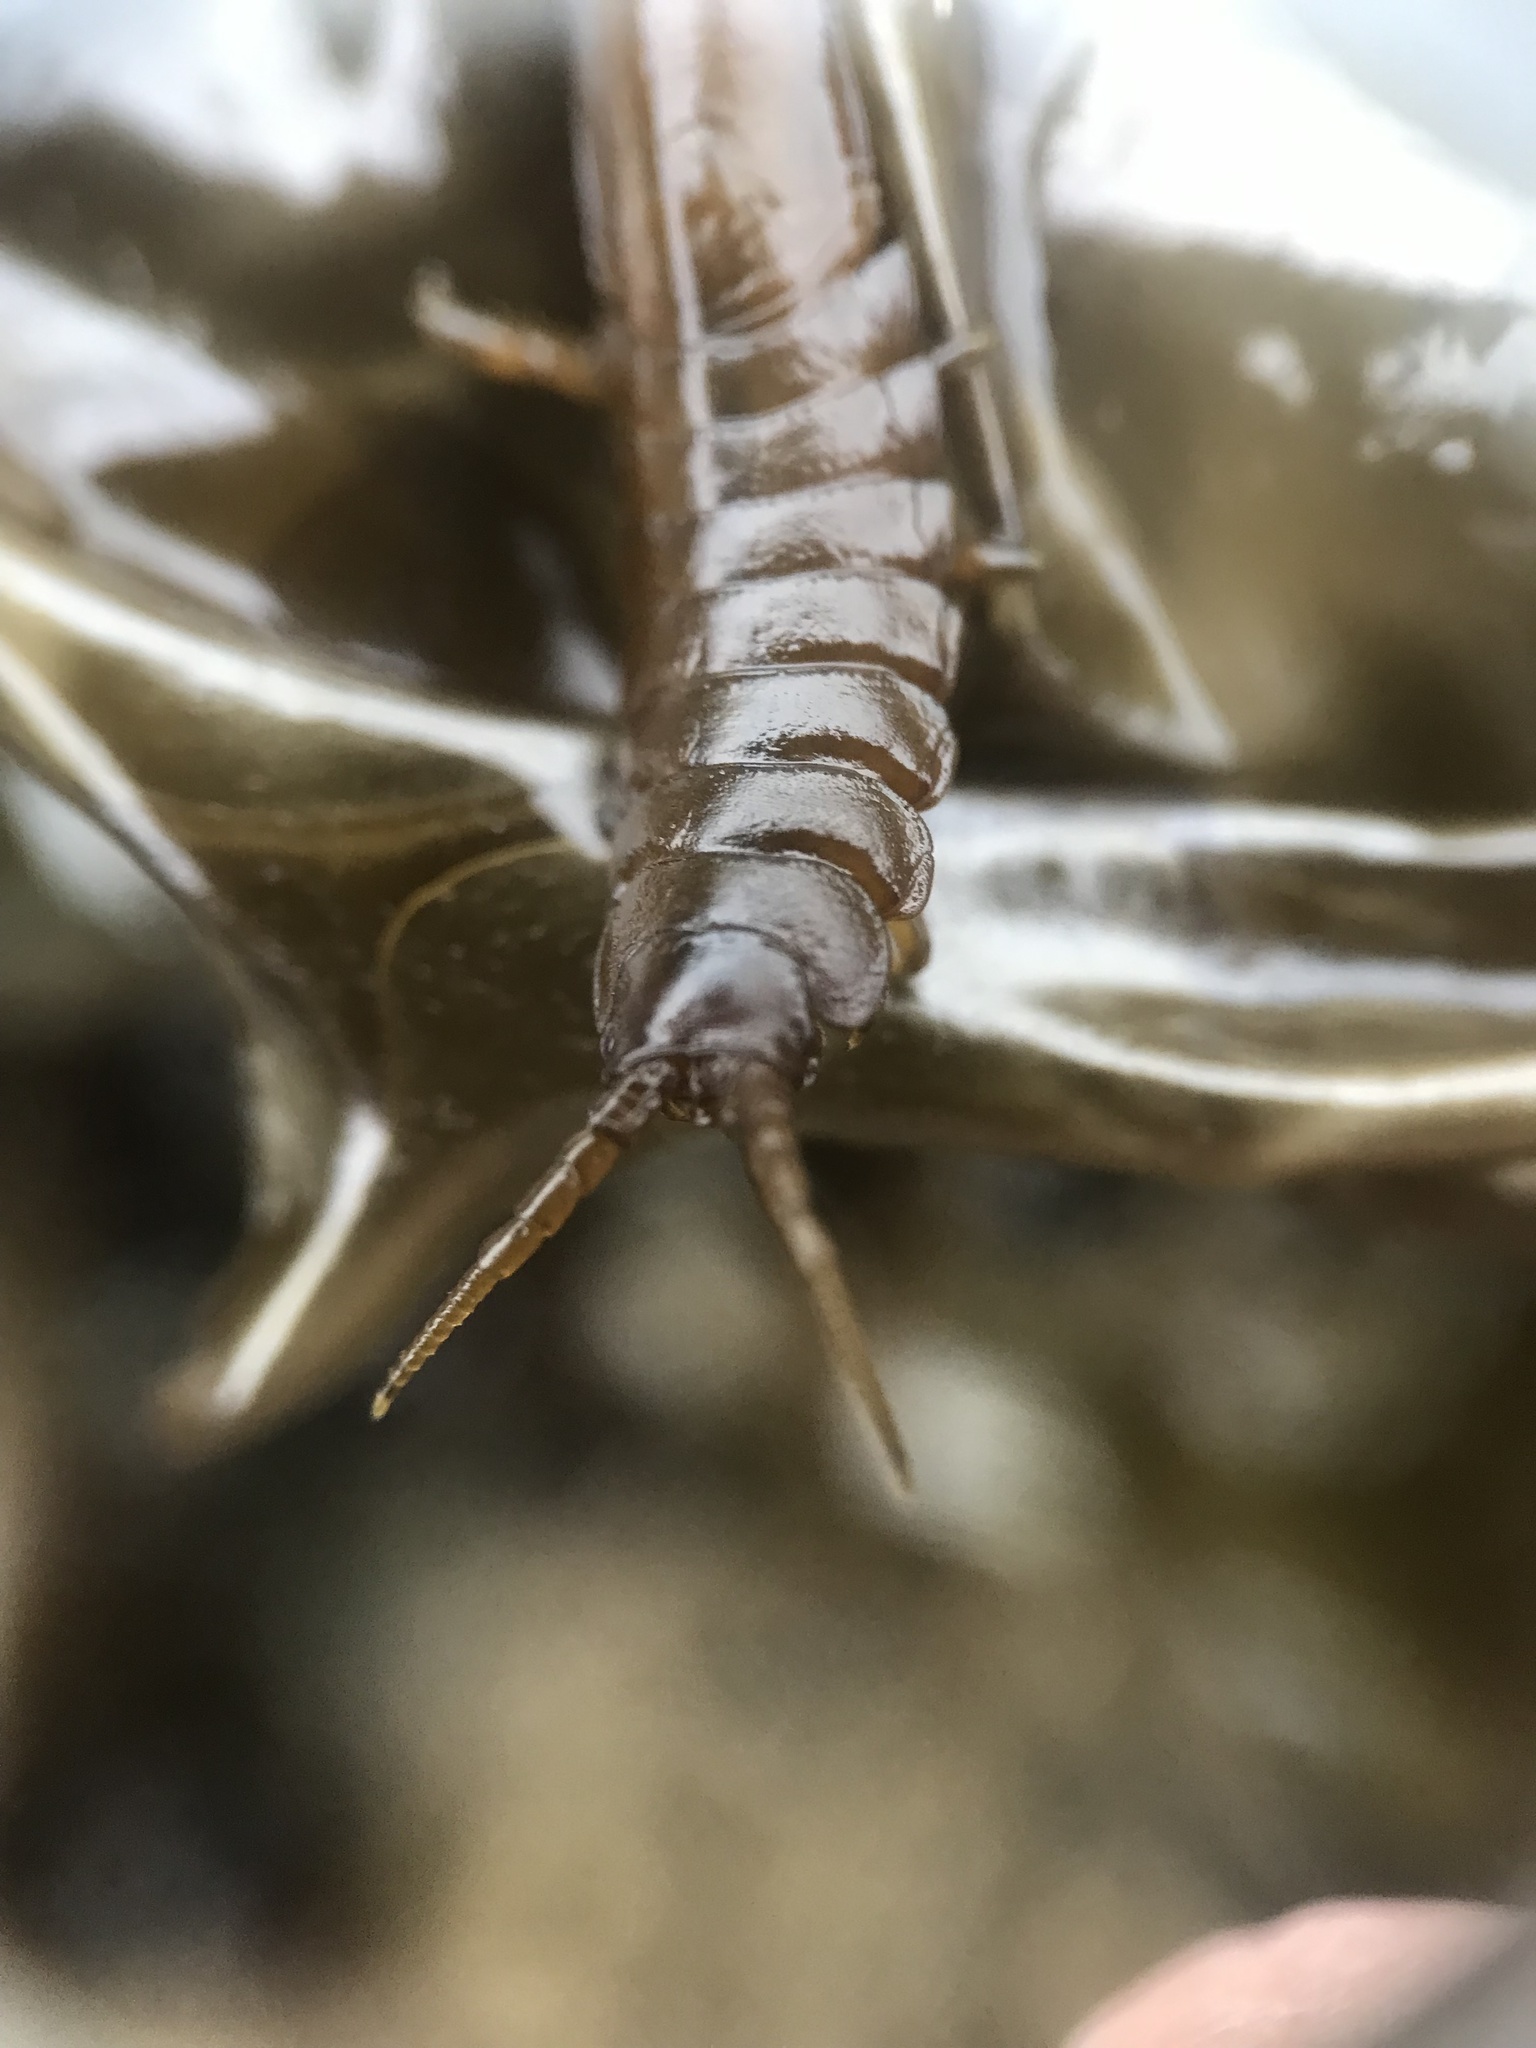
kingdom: Animalia
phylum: Arthropoda
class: Malacostraca
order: Isopoda
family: Idoteidae
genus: Pentidotea
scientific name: Pentidotea wosnesenskii
